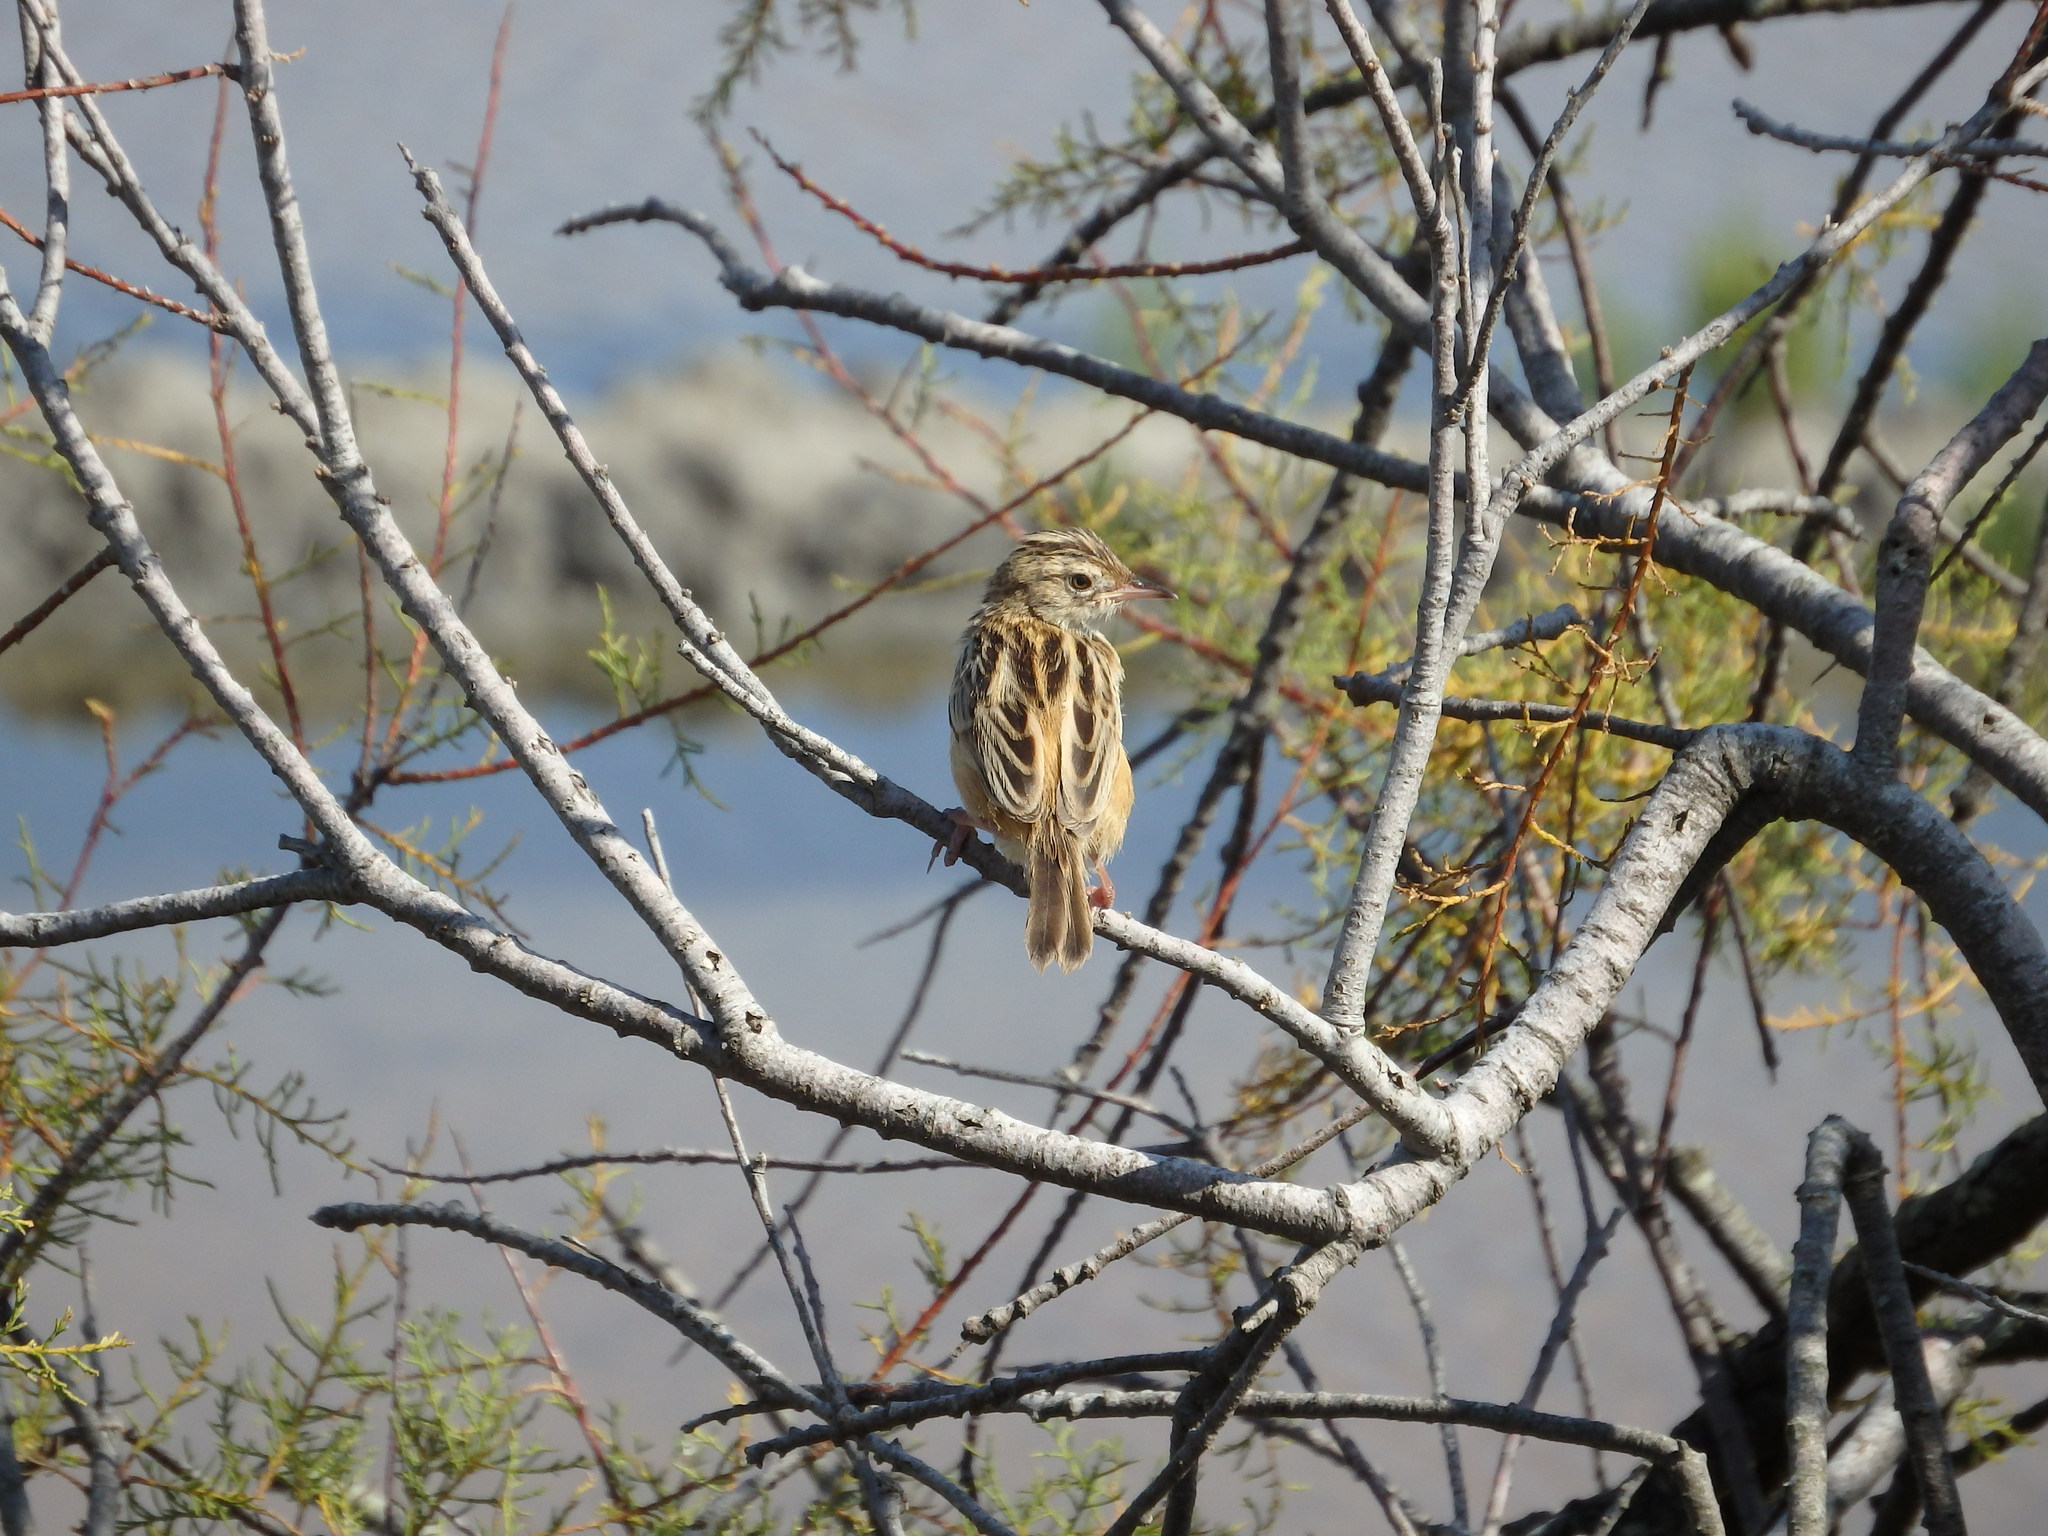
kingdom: Animalia
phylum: Chordata
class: Aves
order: Passeriformes
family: Cisticolidae
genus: Cisticola
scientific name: Cisticola juncidis
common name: Zitting cisticola
